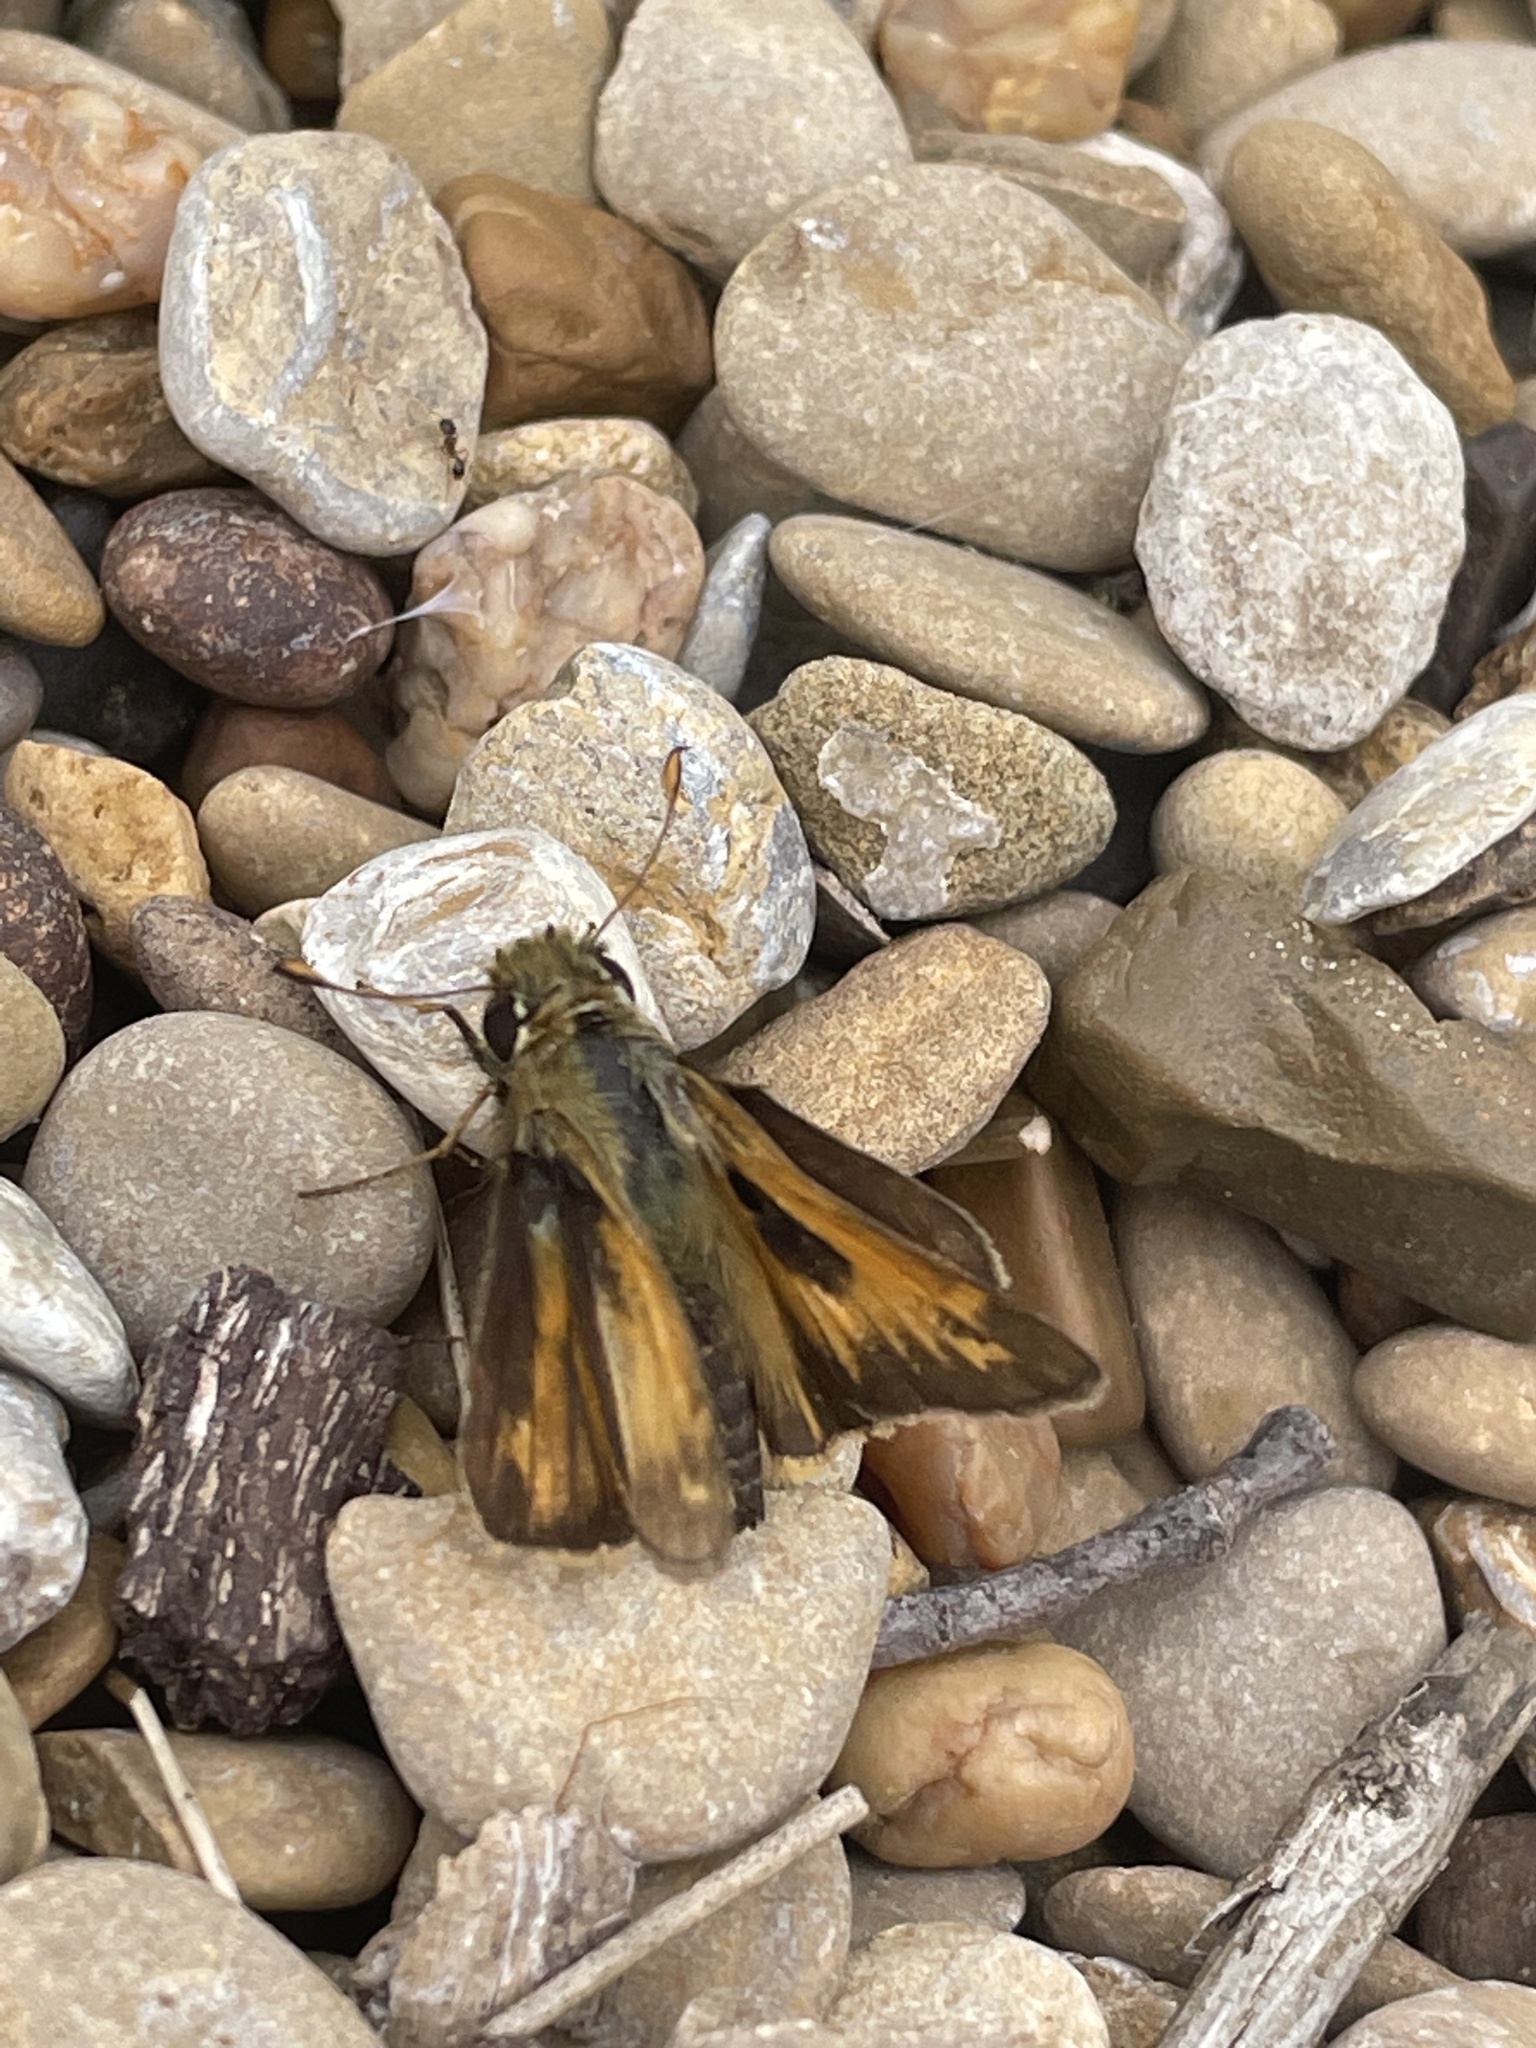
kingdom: Animalia
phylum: Arthropoda
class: Insecta
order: Lepidoptera
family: Hesperiidae
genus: Atalopedes
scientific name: Atalopedes
